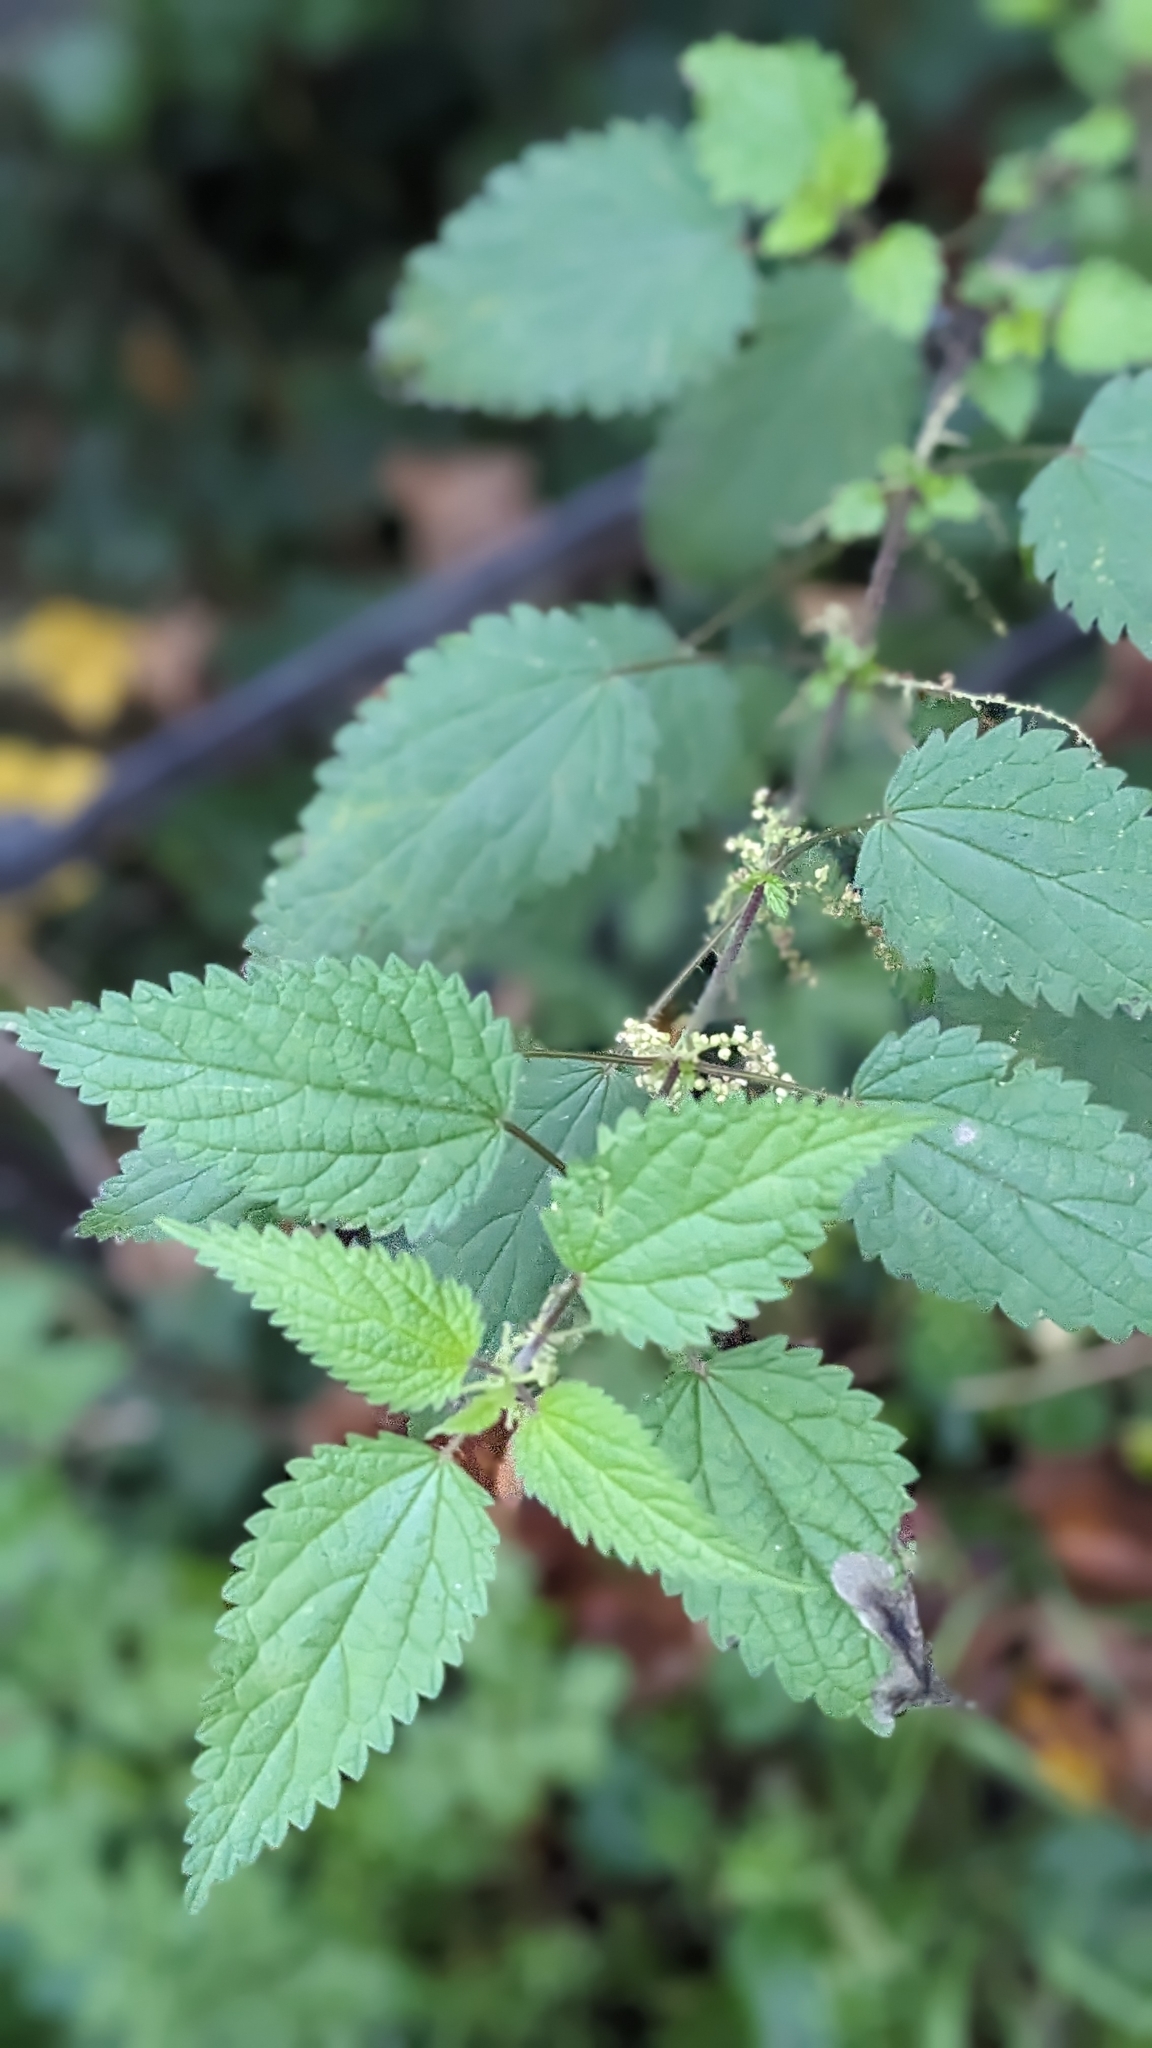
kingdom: Plantae
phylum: Tracheophyta
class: Magnoliopsida
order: Rosales
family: Urticaceae
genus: Urtica
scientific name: Urtica dioica
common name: Common nettle
